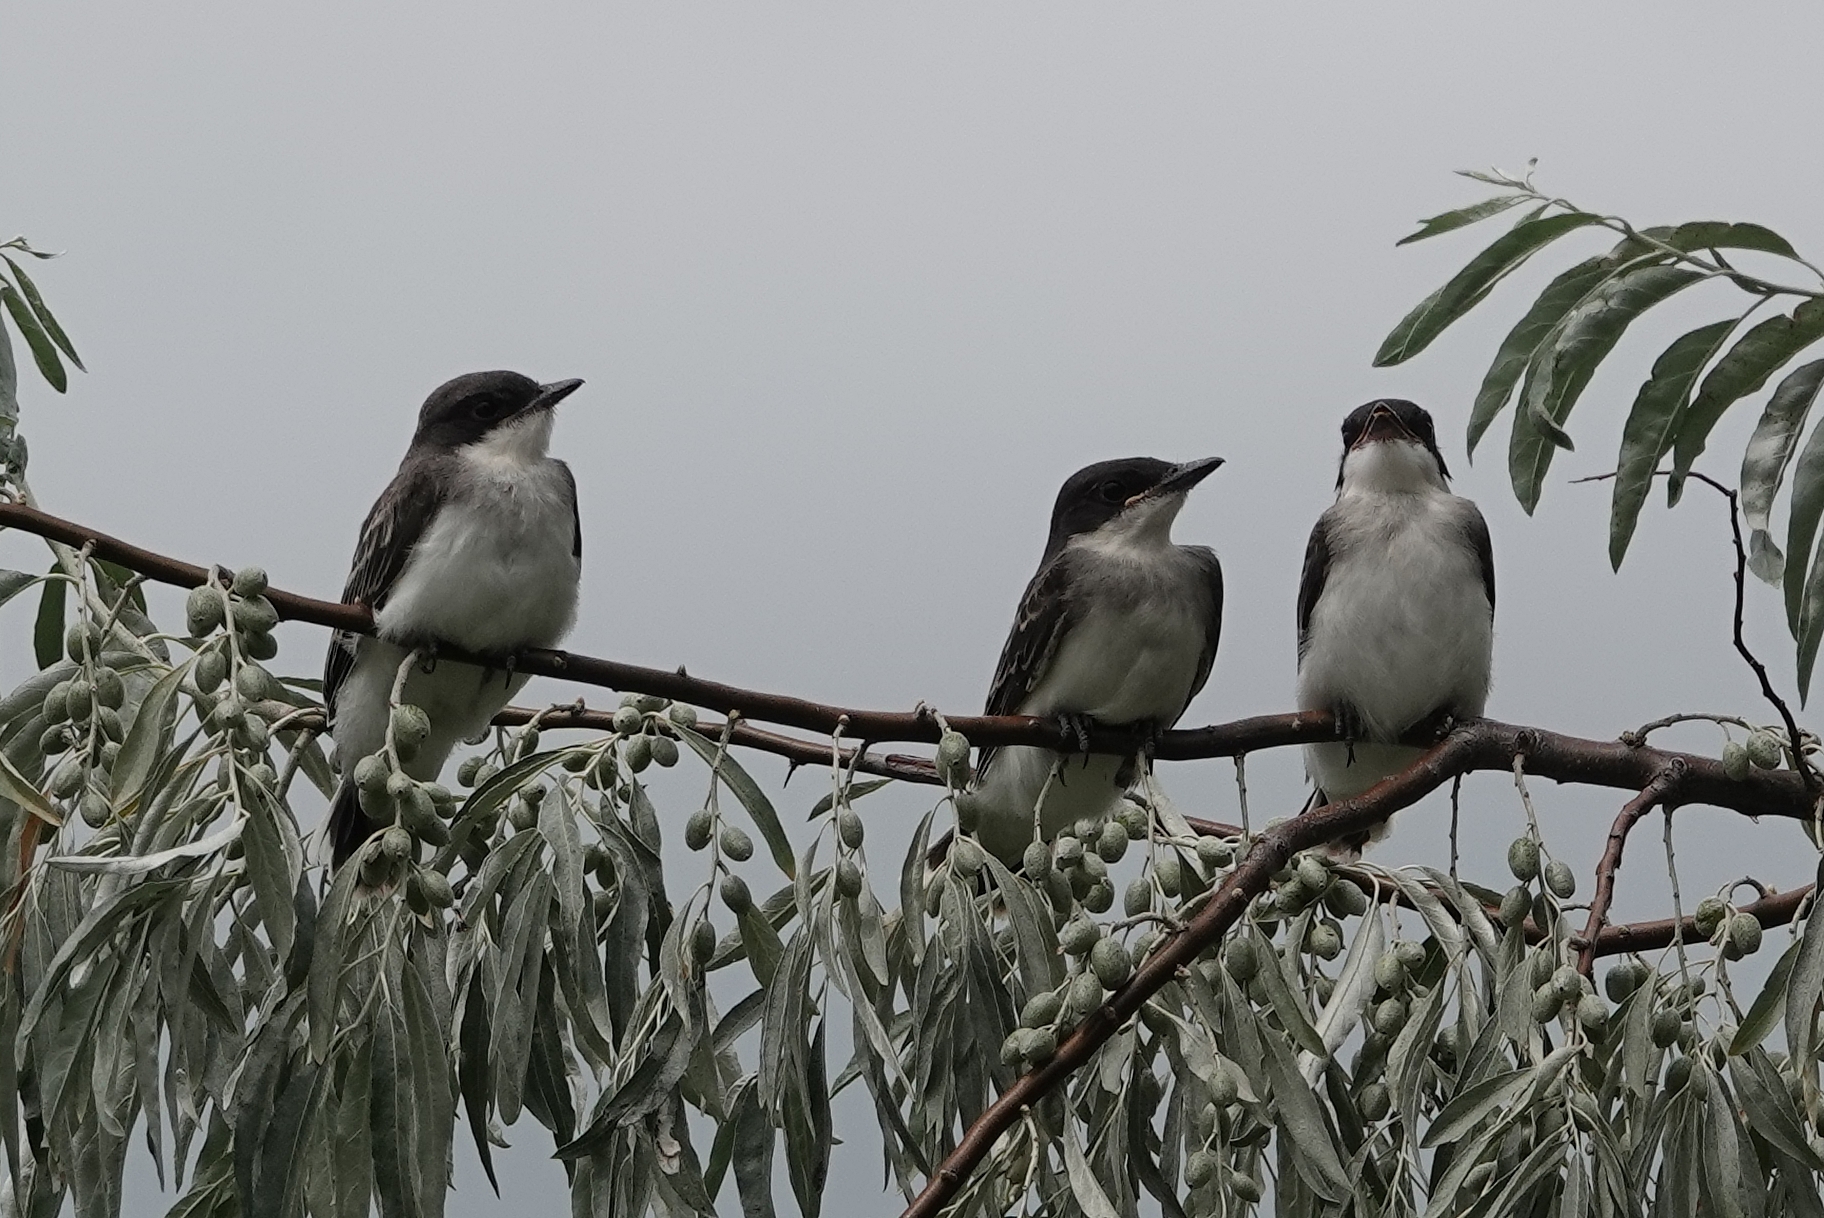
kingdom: Animalia
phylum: Chordata
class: Aves
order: Passeriformes
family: Tyrannidae
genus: Tyrannus
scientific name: Tyrannus tyrannus
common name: Eastern kingbird
